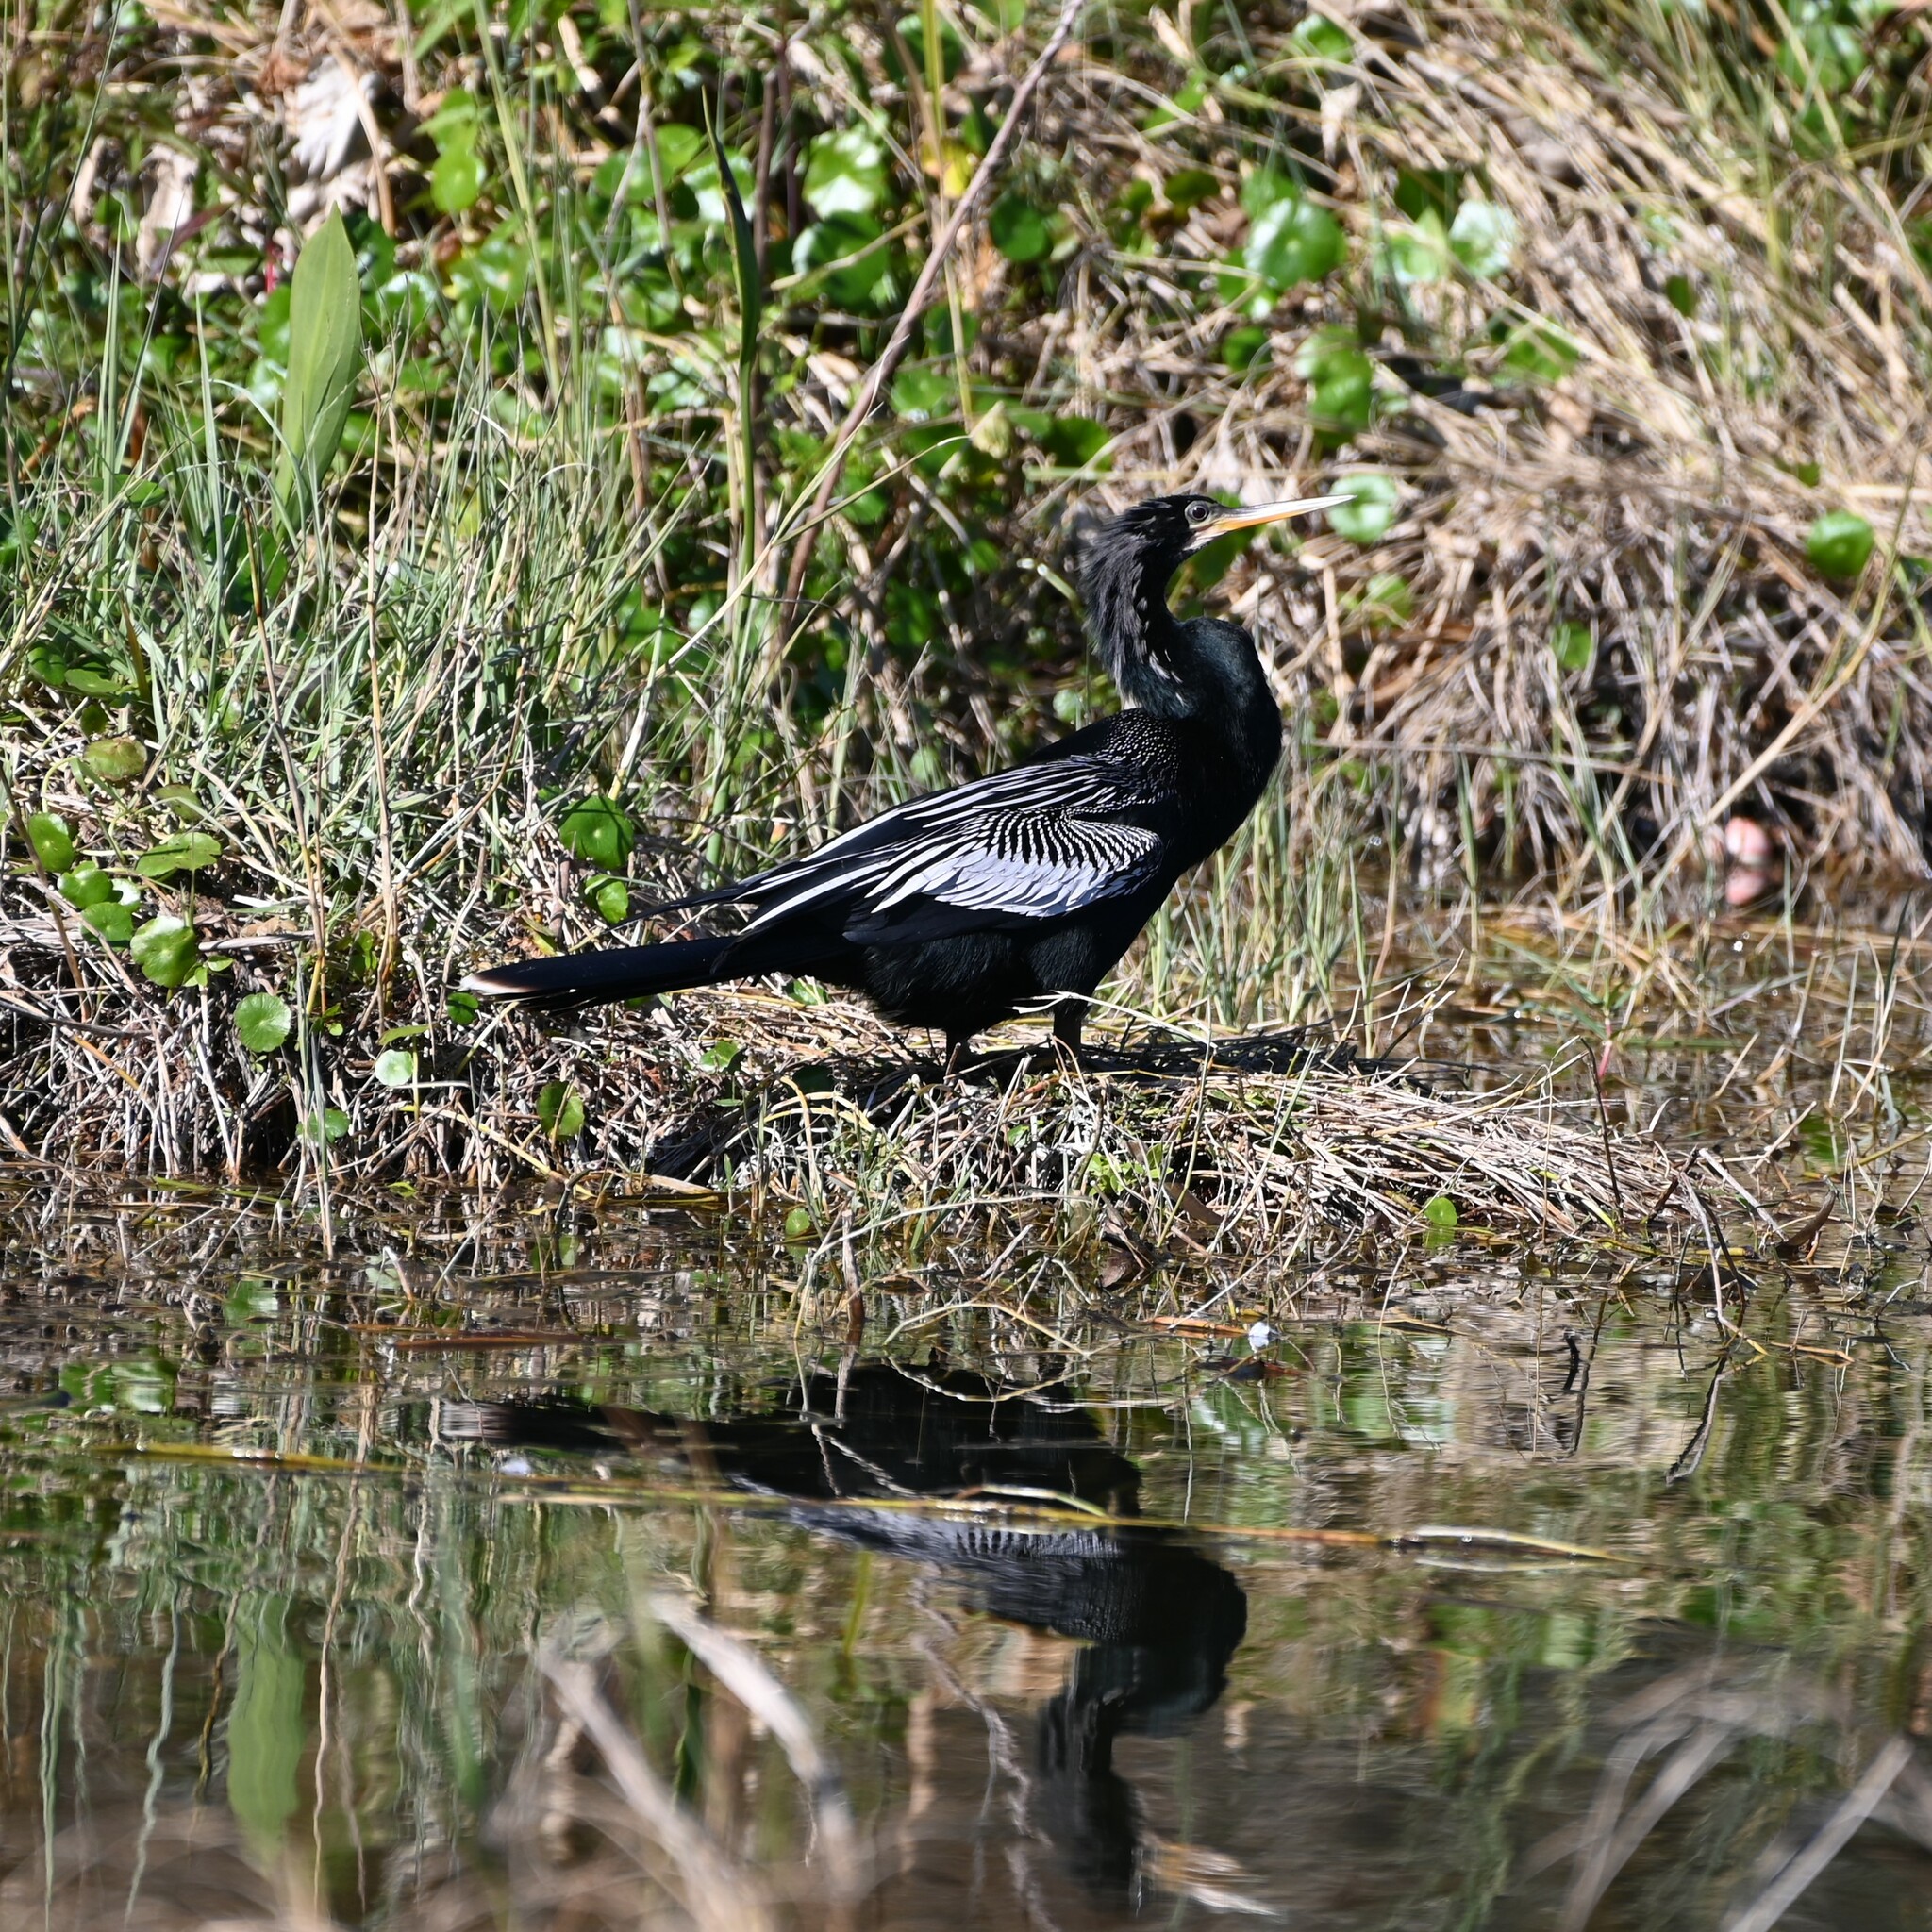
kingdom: Animalia
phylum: Chordata
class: Aves
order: Suliformes
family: Anhingidae
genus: Anhinga
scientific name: Anhinga anhinga
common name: Anhinga
